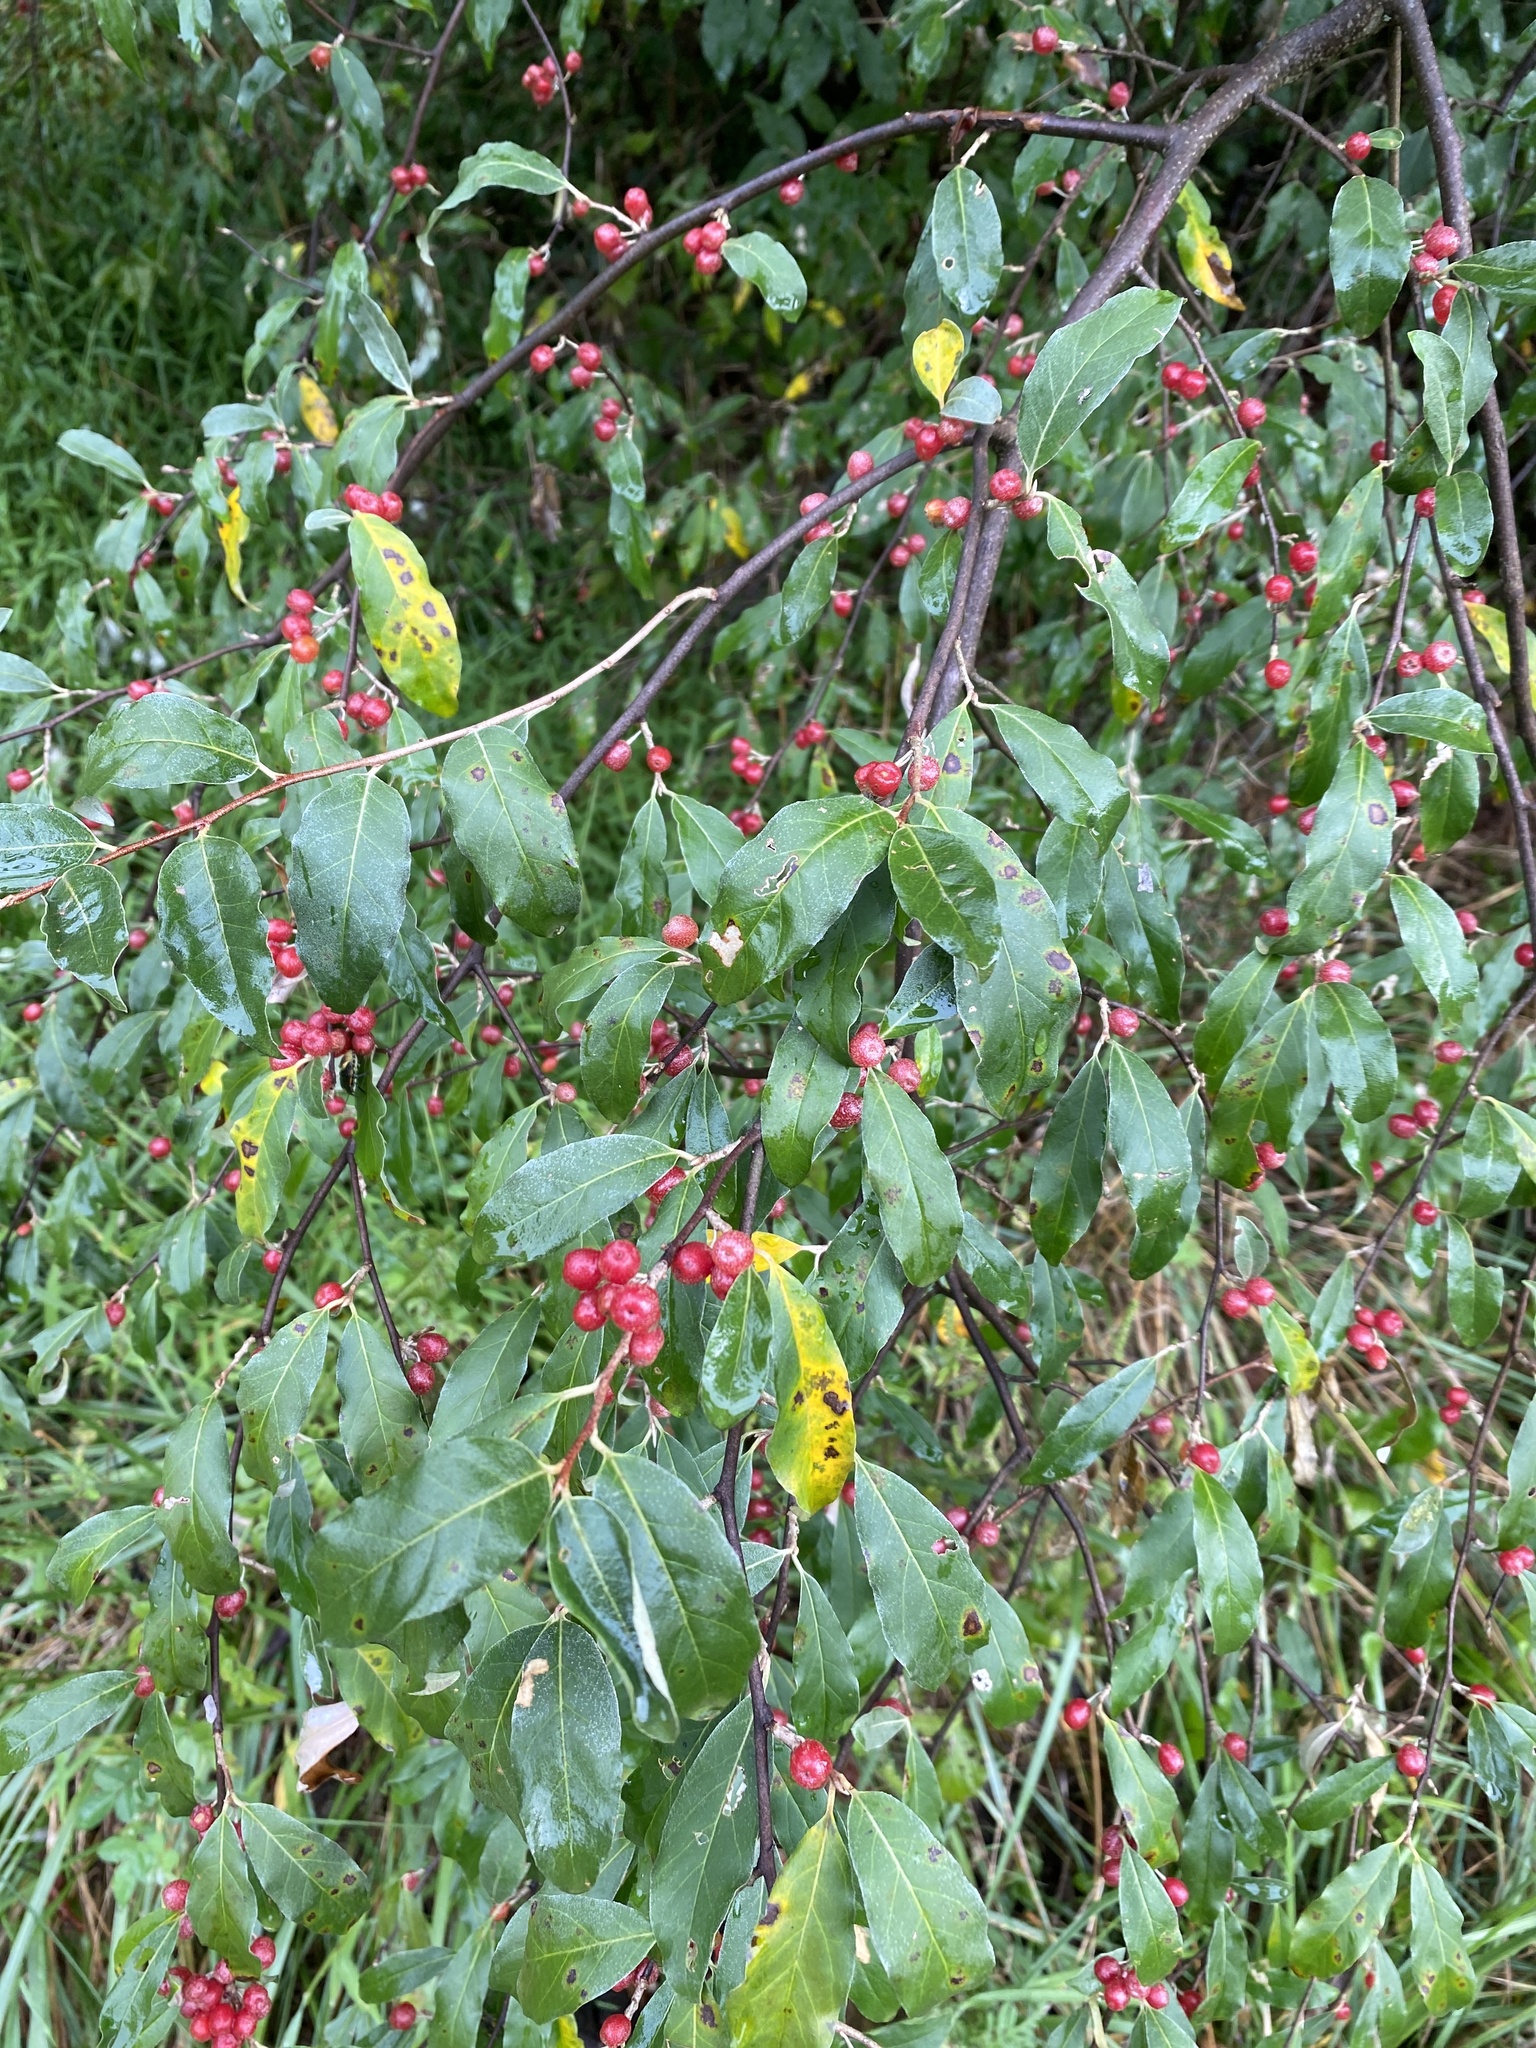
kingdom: Plantae
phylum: Tracheophyta
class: Magnoliopsida
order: Rosales
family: Elaeagnaceae
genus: Elaeagnus
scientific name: Elaeagnus umbellata
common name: Autumn olive
